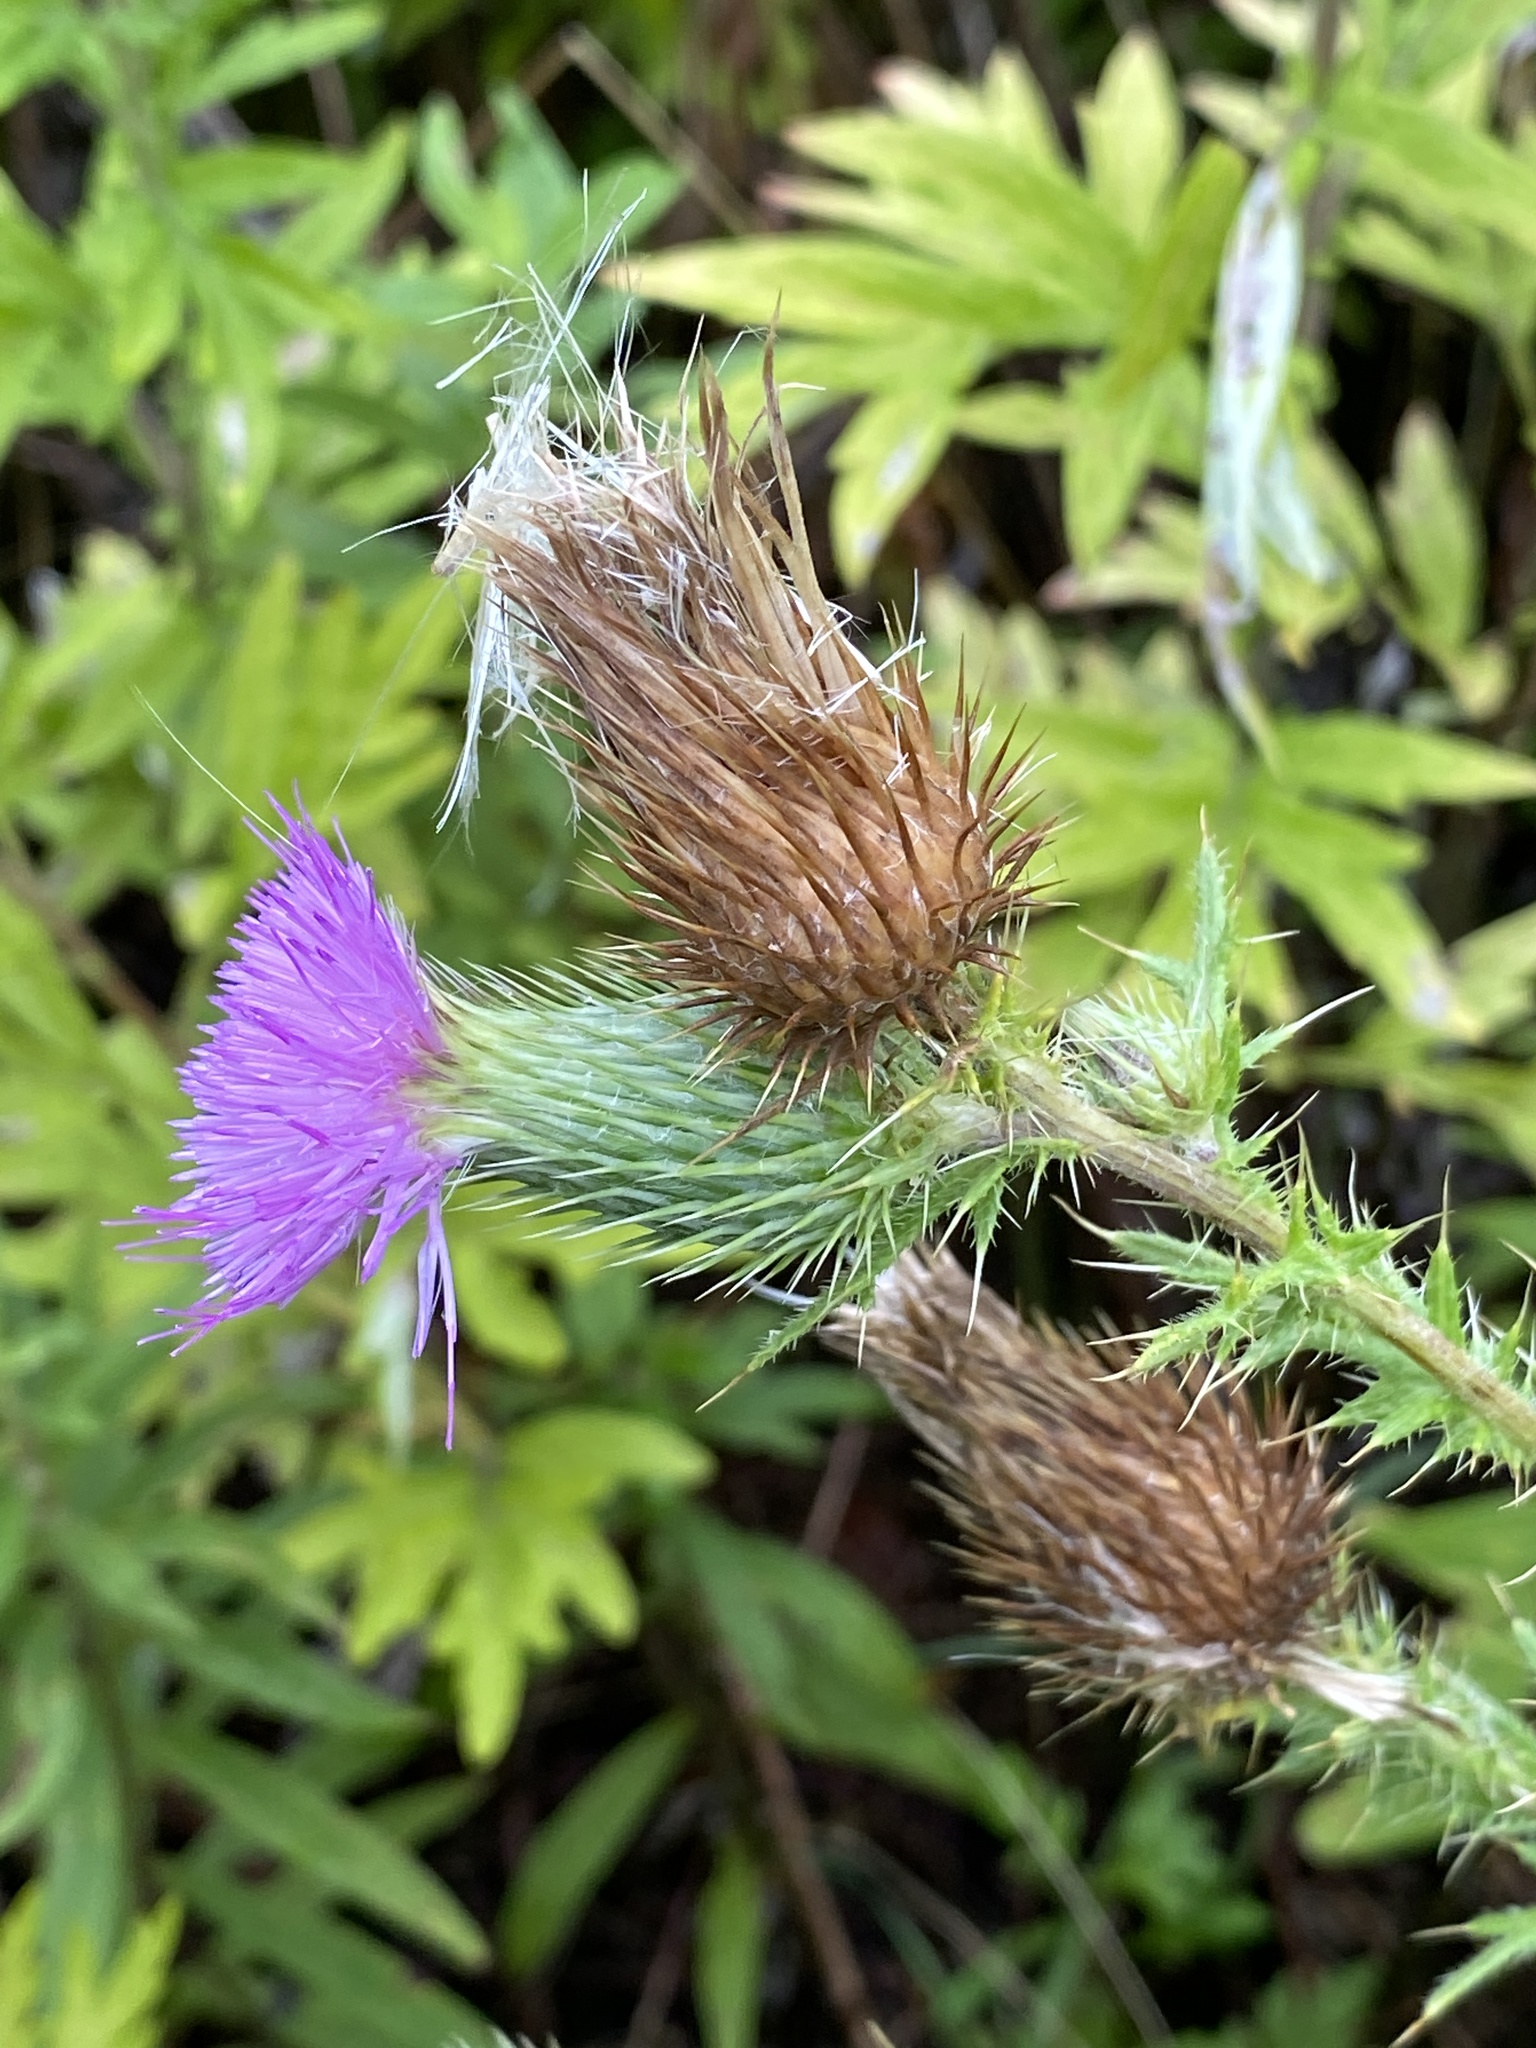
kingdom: Plantae
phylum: Tracheophyta
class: Magnoliopsida
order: Asterales
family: Asteraceae
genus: Cirsium
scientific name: Cirsium vulgare
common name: Bull thistle
